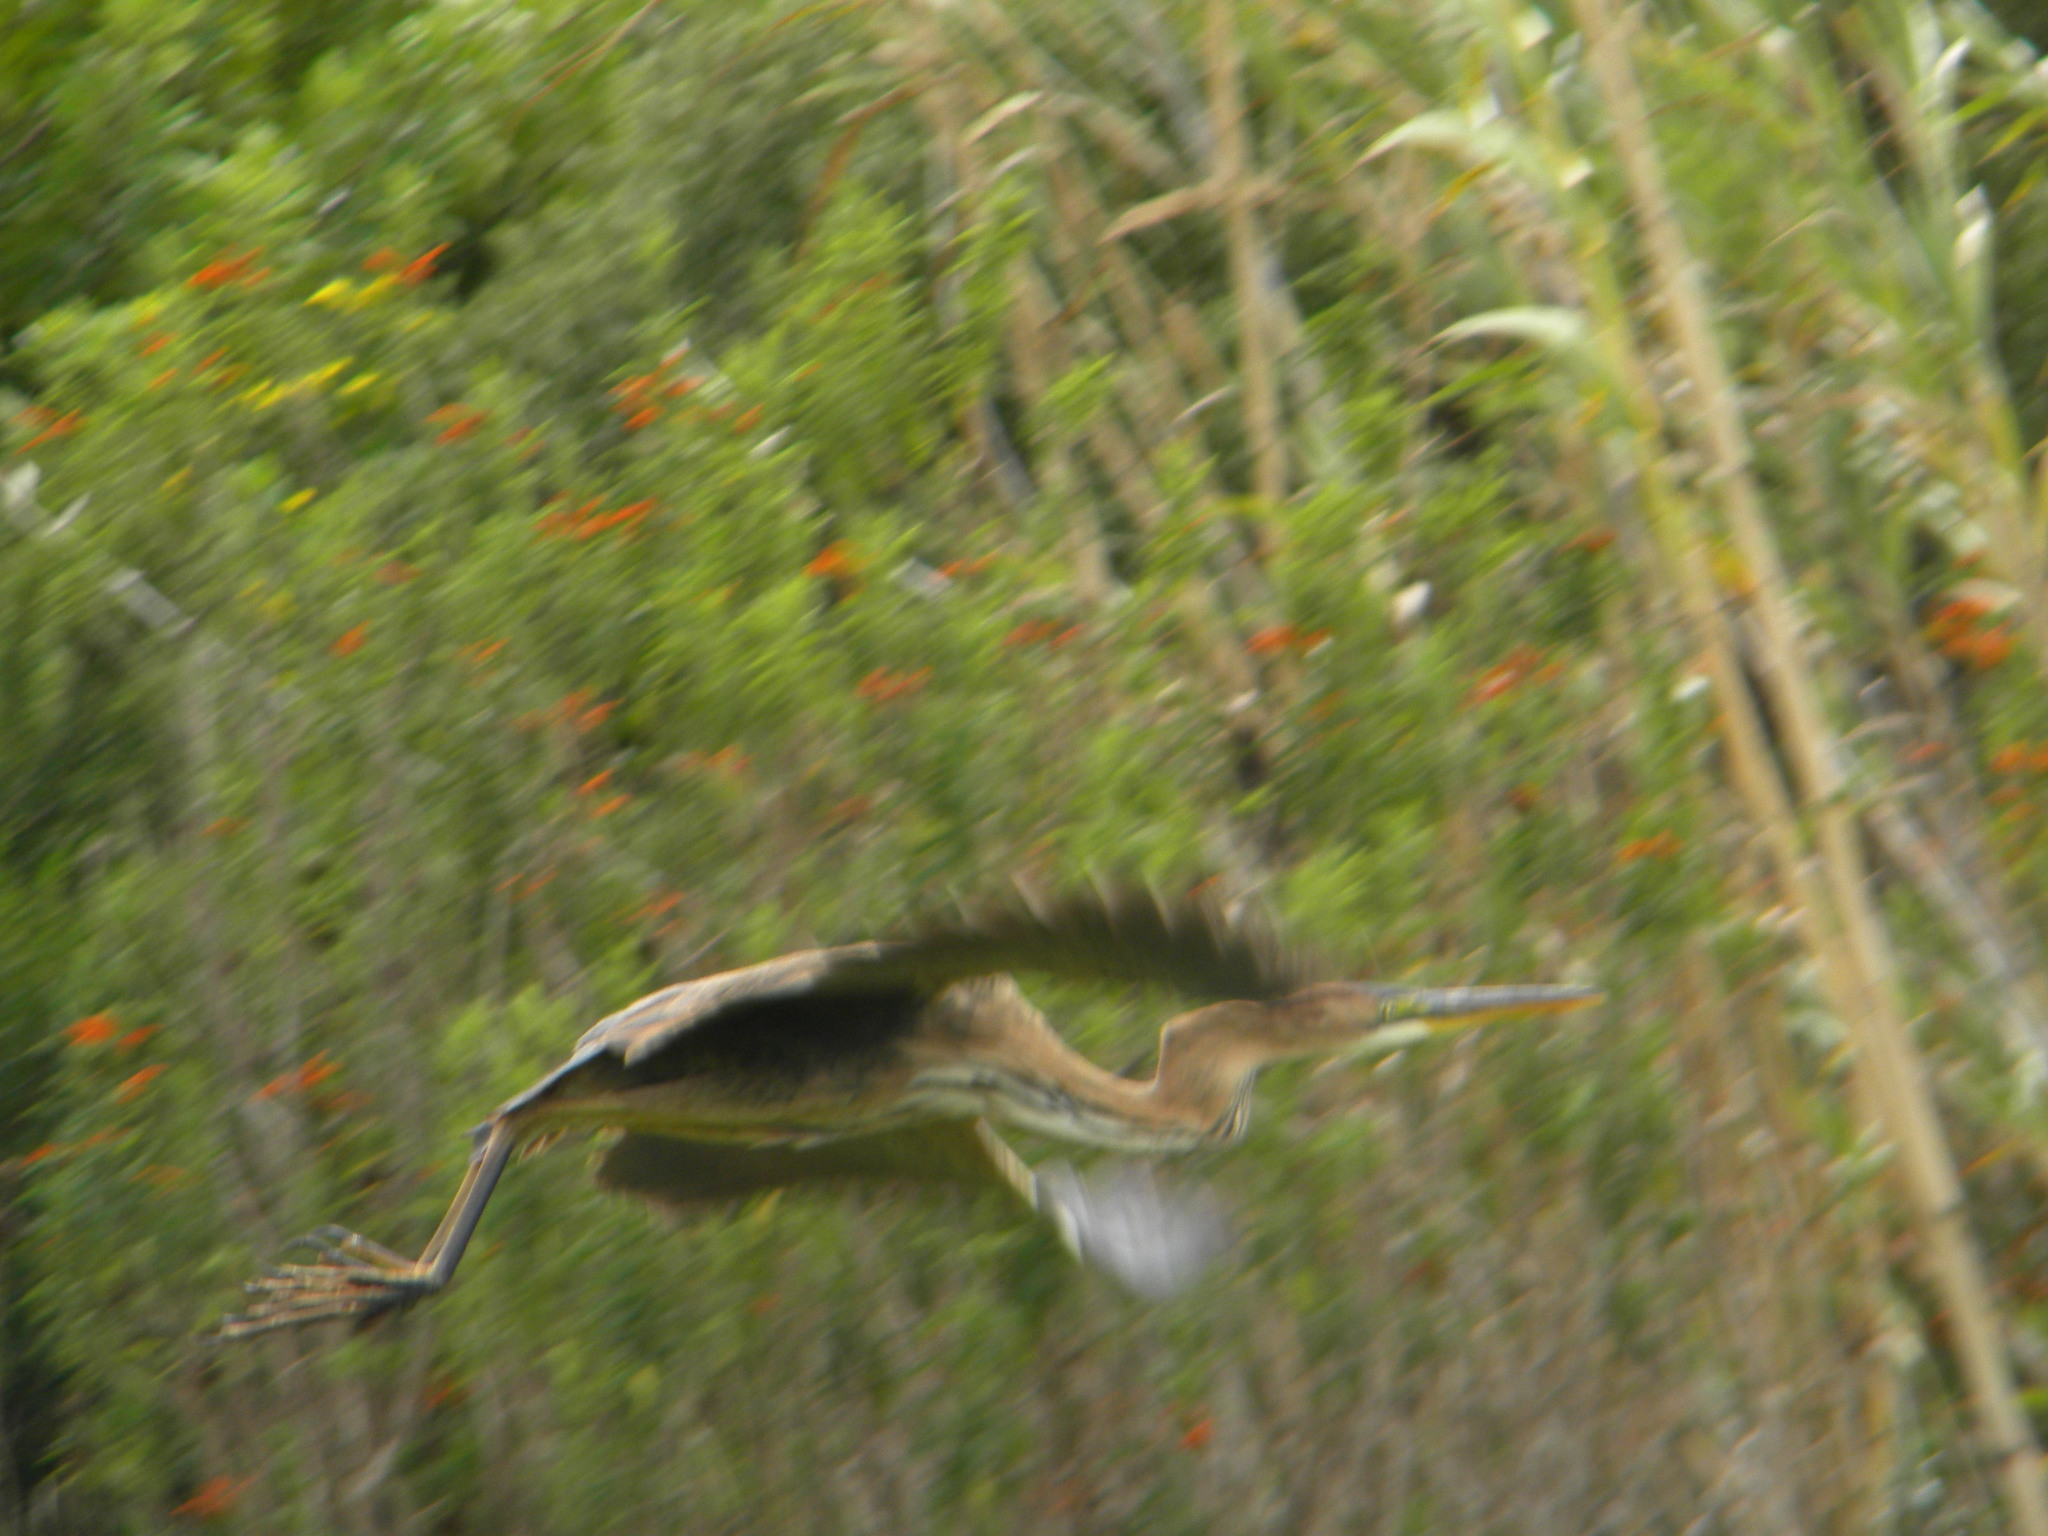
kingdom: Animalia
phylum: Chordata
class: Aves
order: Pelecaniformes
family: Ardeidae
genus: Ardea
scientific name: Ardea purpurea
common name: Purple heron
